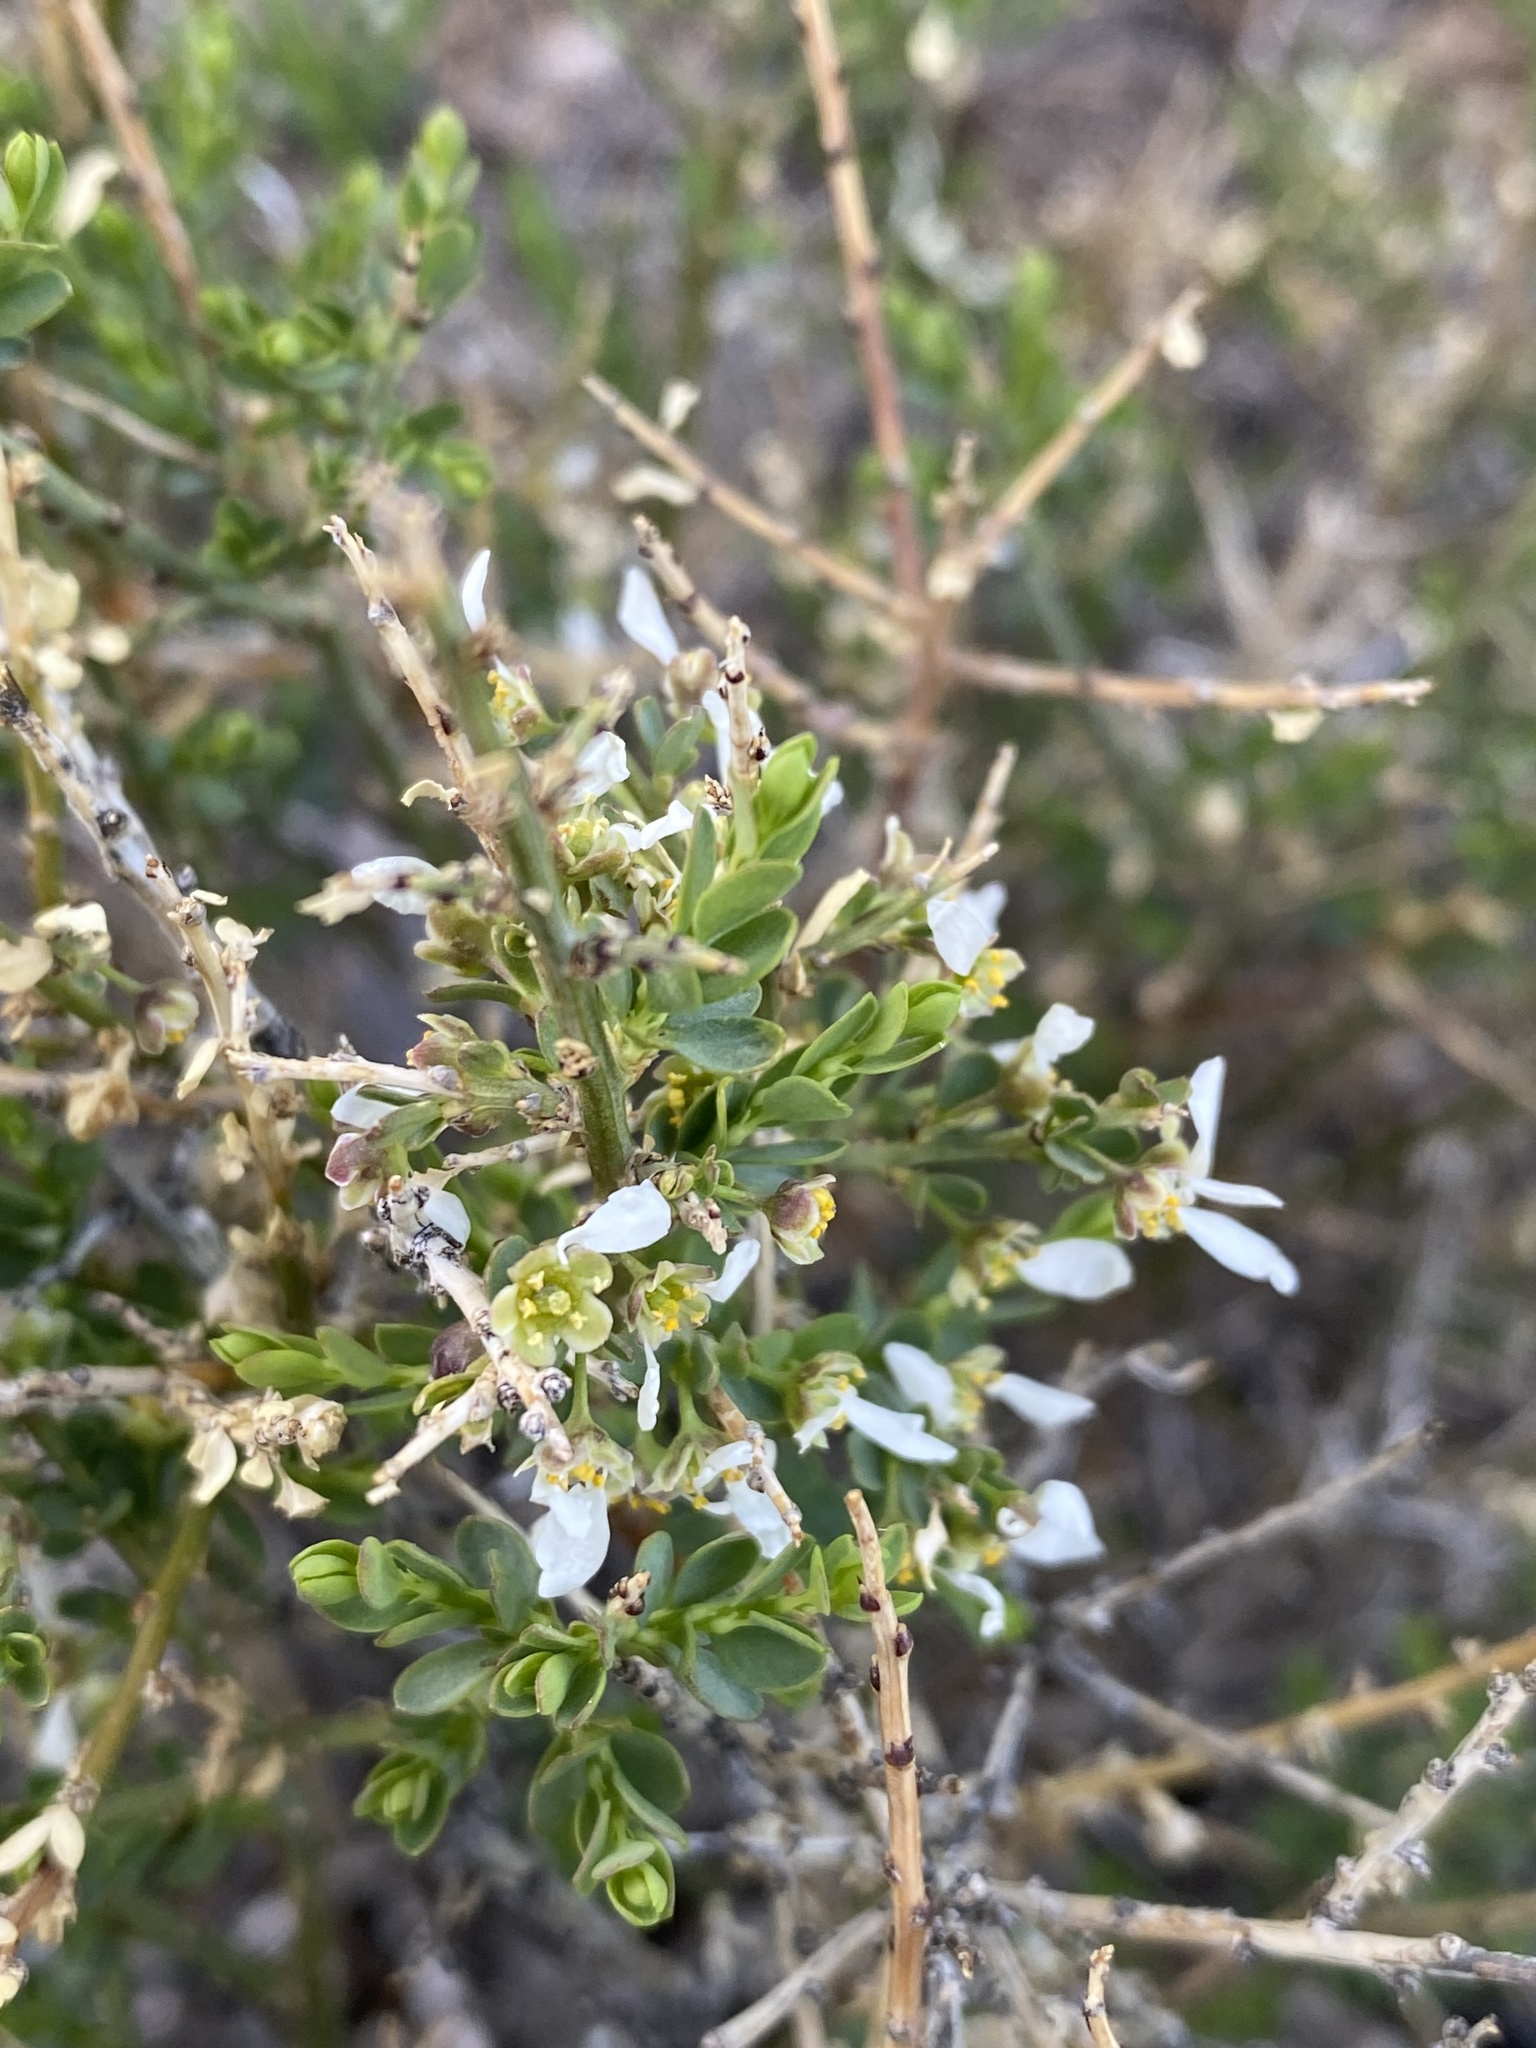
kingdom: Plantae
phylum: Tracheophyta
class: Magnoliopsida
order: Crossosomatales
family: Crossosomataceae
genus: Glossopetalon
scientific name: Glossopetalon spinescens
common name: Spring greasebush
